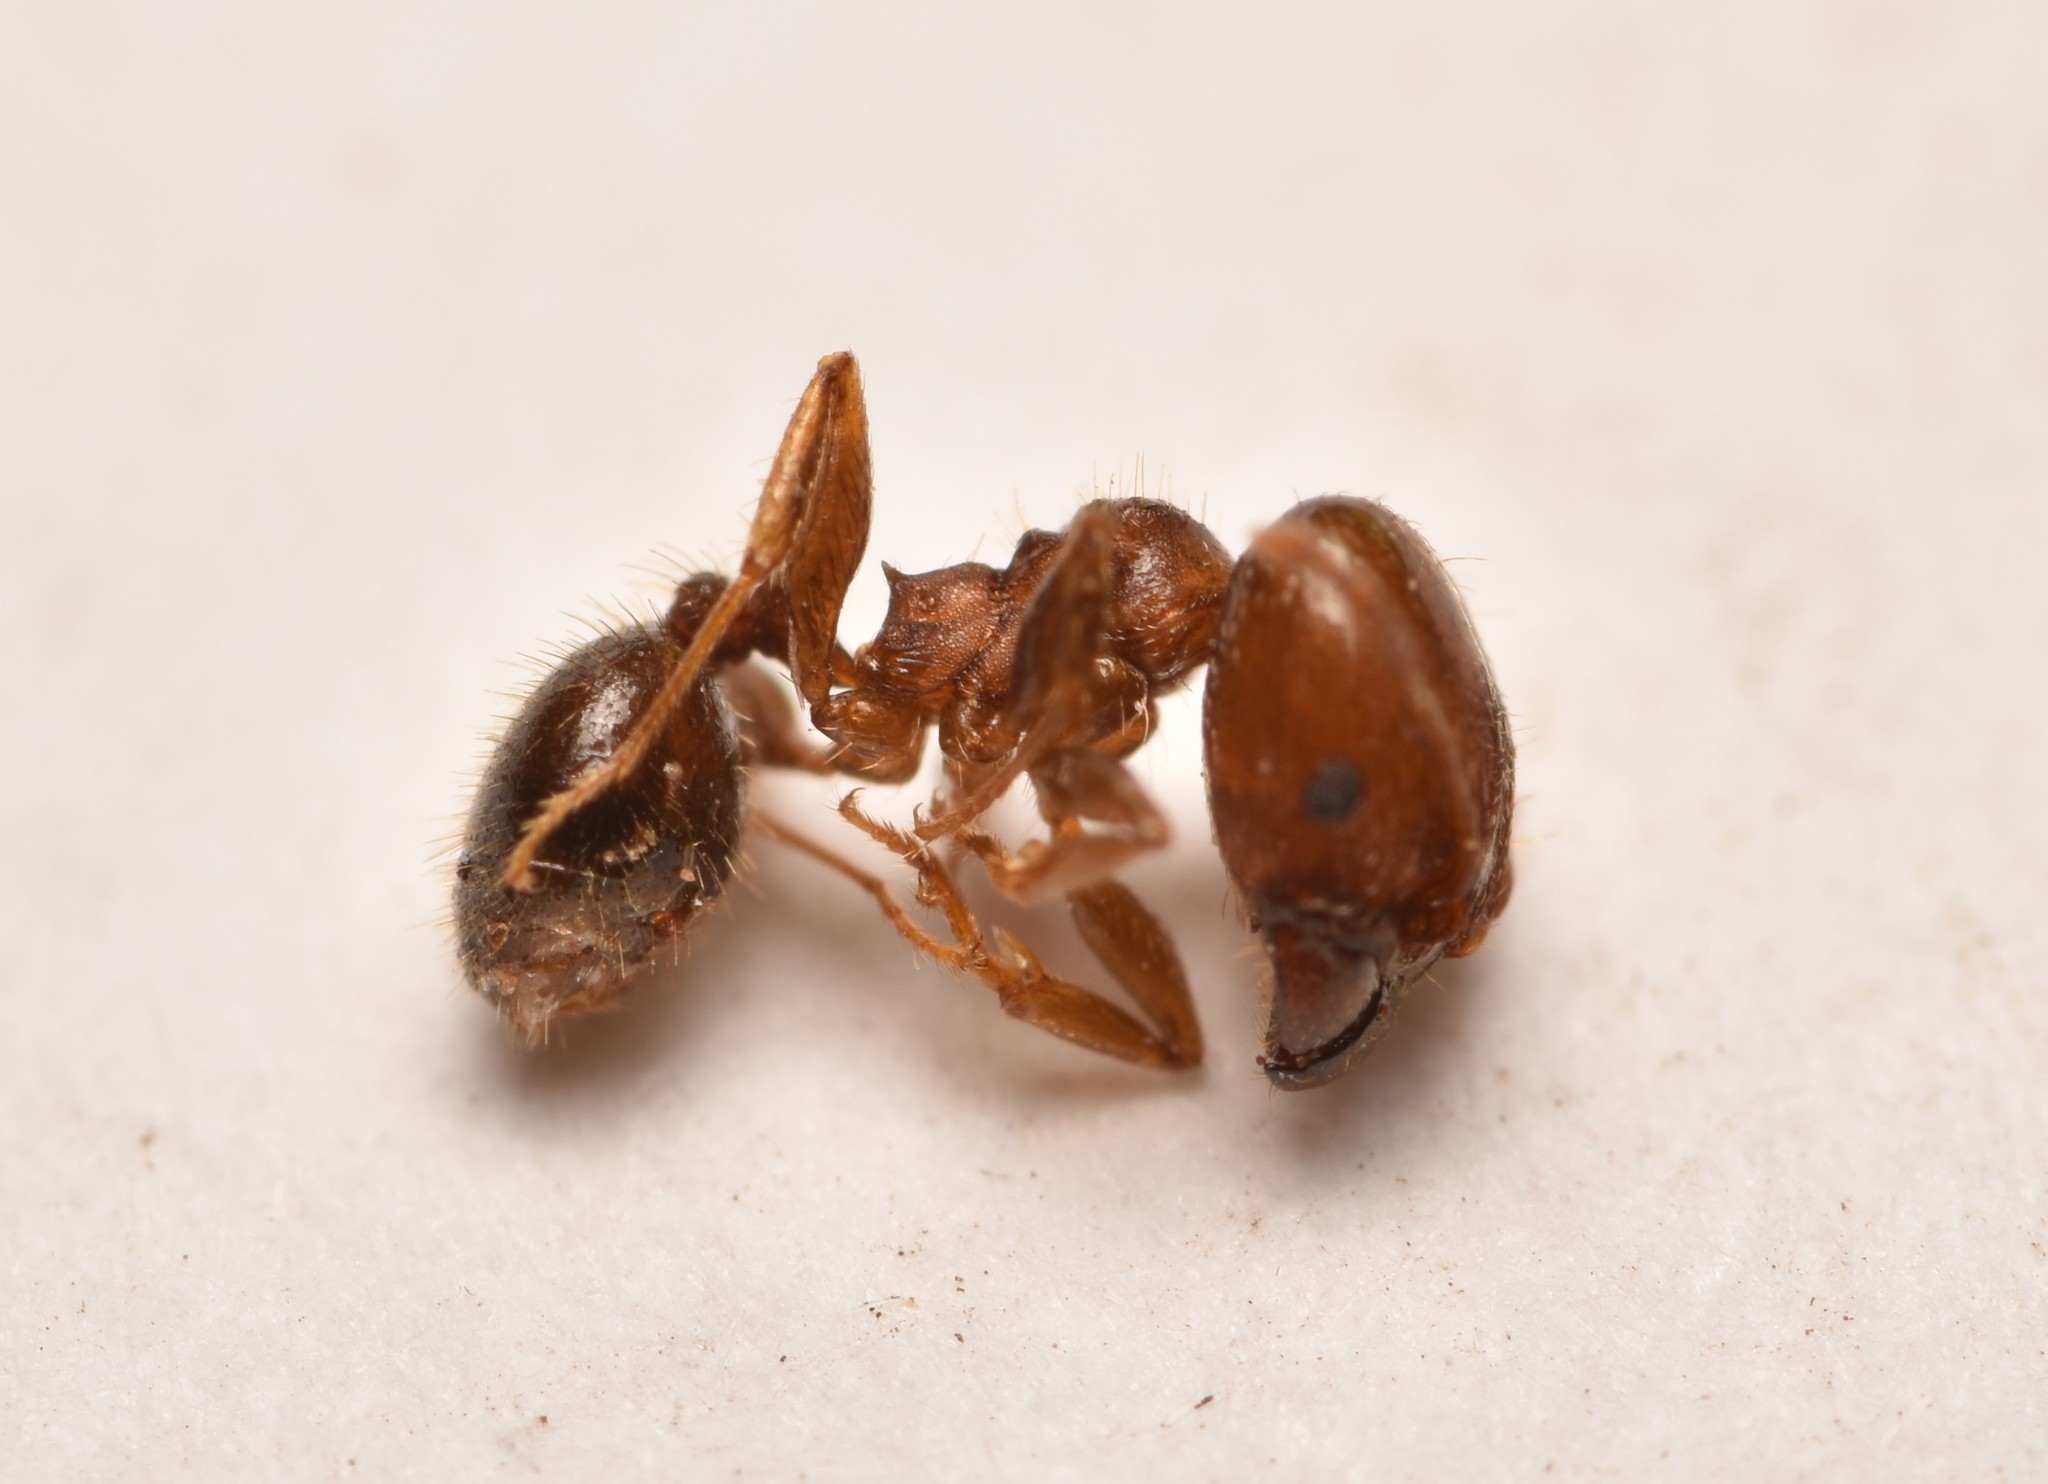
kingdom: Animalia
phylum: Arthropoda
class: Insecta
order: Hymenoptera
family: Formicidae
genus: Pheidole
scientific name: Pheidole tetra
